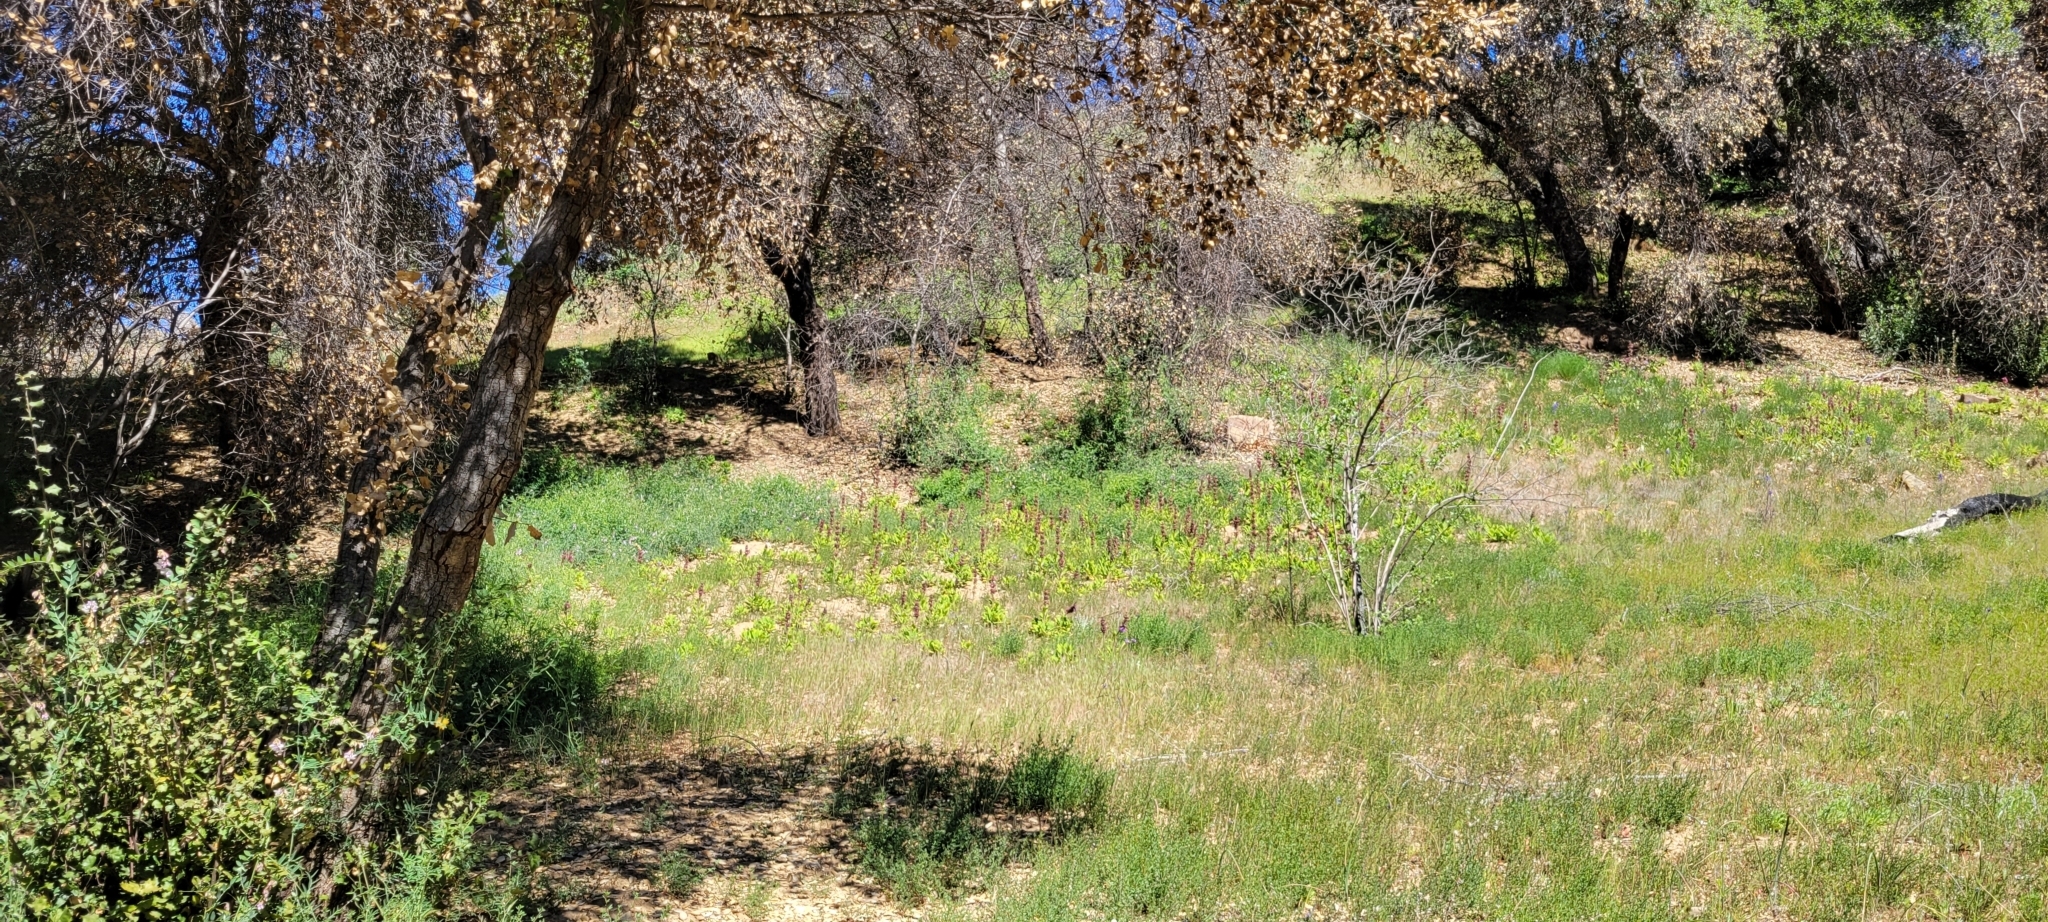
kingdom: Plantae
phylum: Tracheophyta
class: Magnoliopsida
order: Lamiales
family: Lamiaceae
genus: Salvia
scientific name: Salvia spathacea
